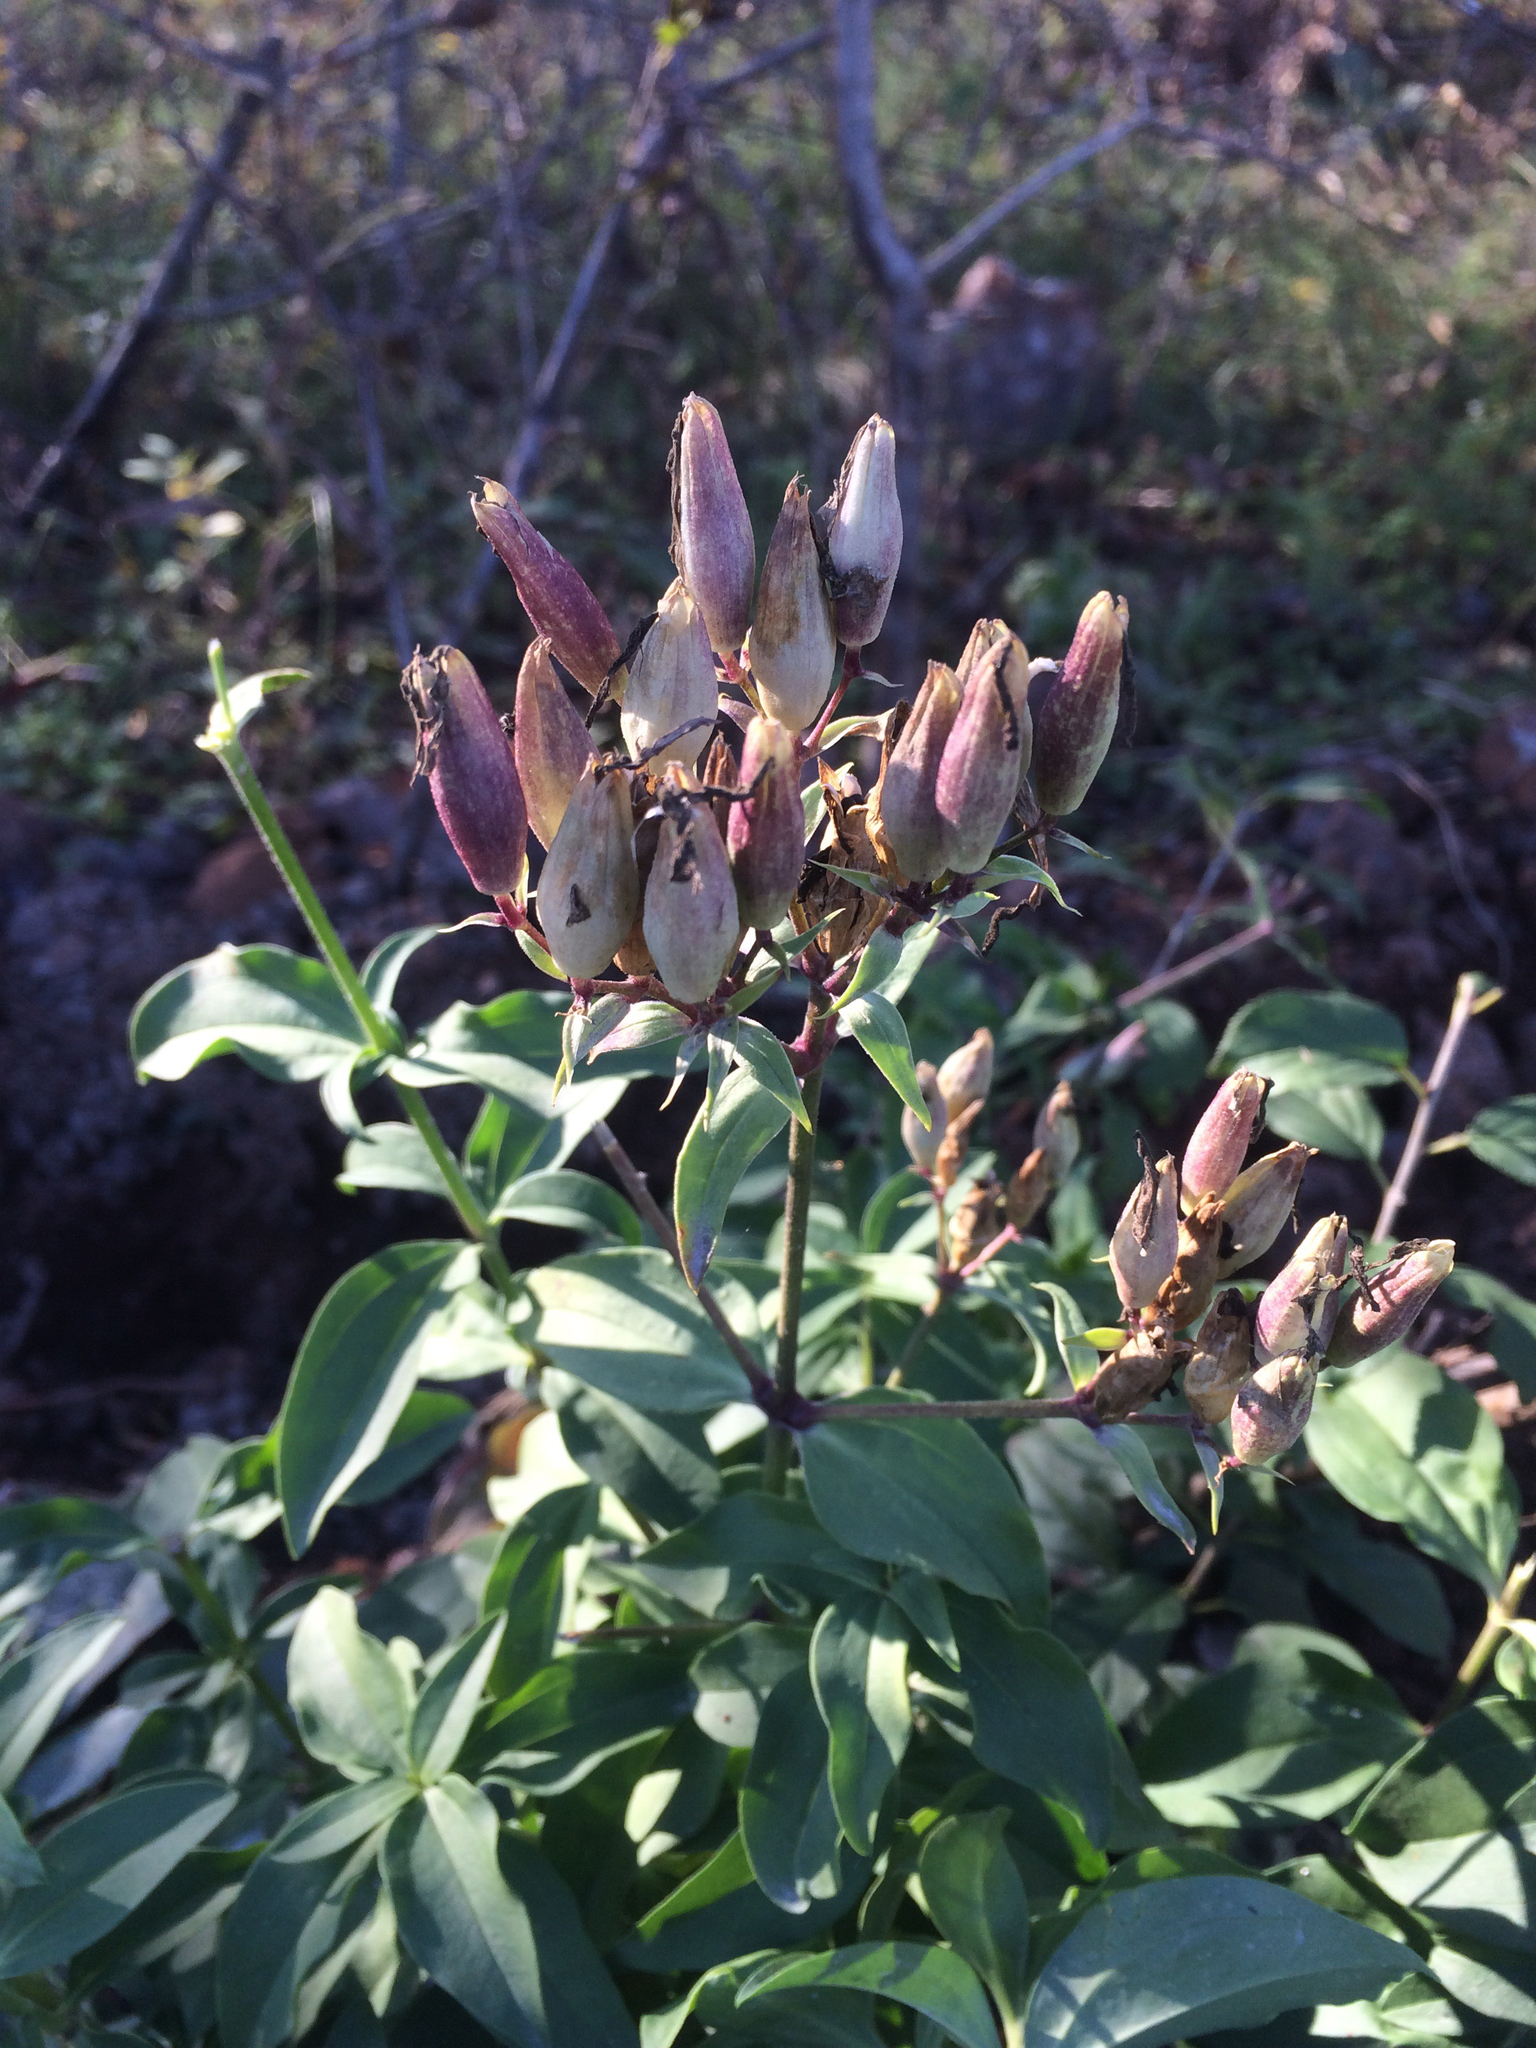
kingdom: Plantae
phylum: Tracheophyta
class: Magnoliopsida
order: Caryophyllales
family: Caryophyllaceae
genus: Saponaria
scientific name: Saponaria officinalis
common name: Soapwort
